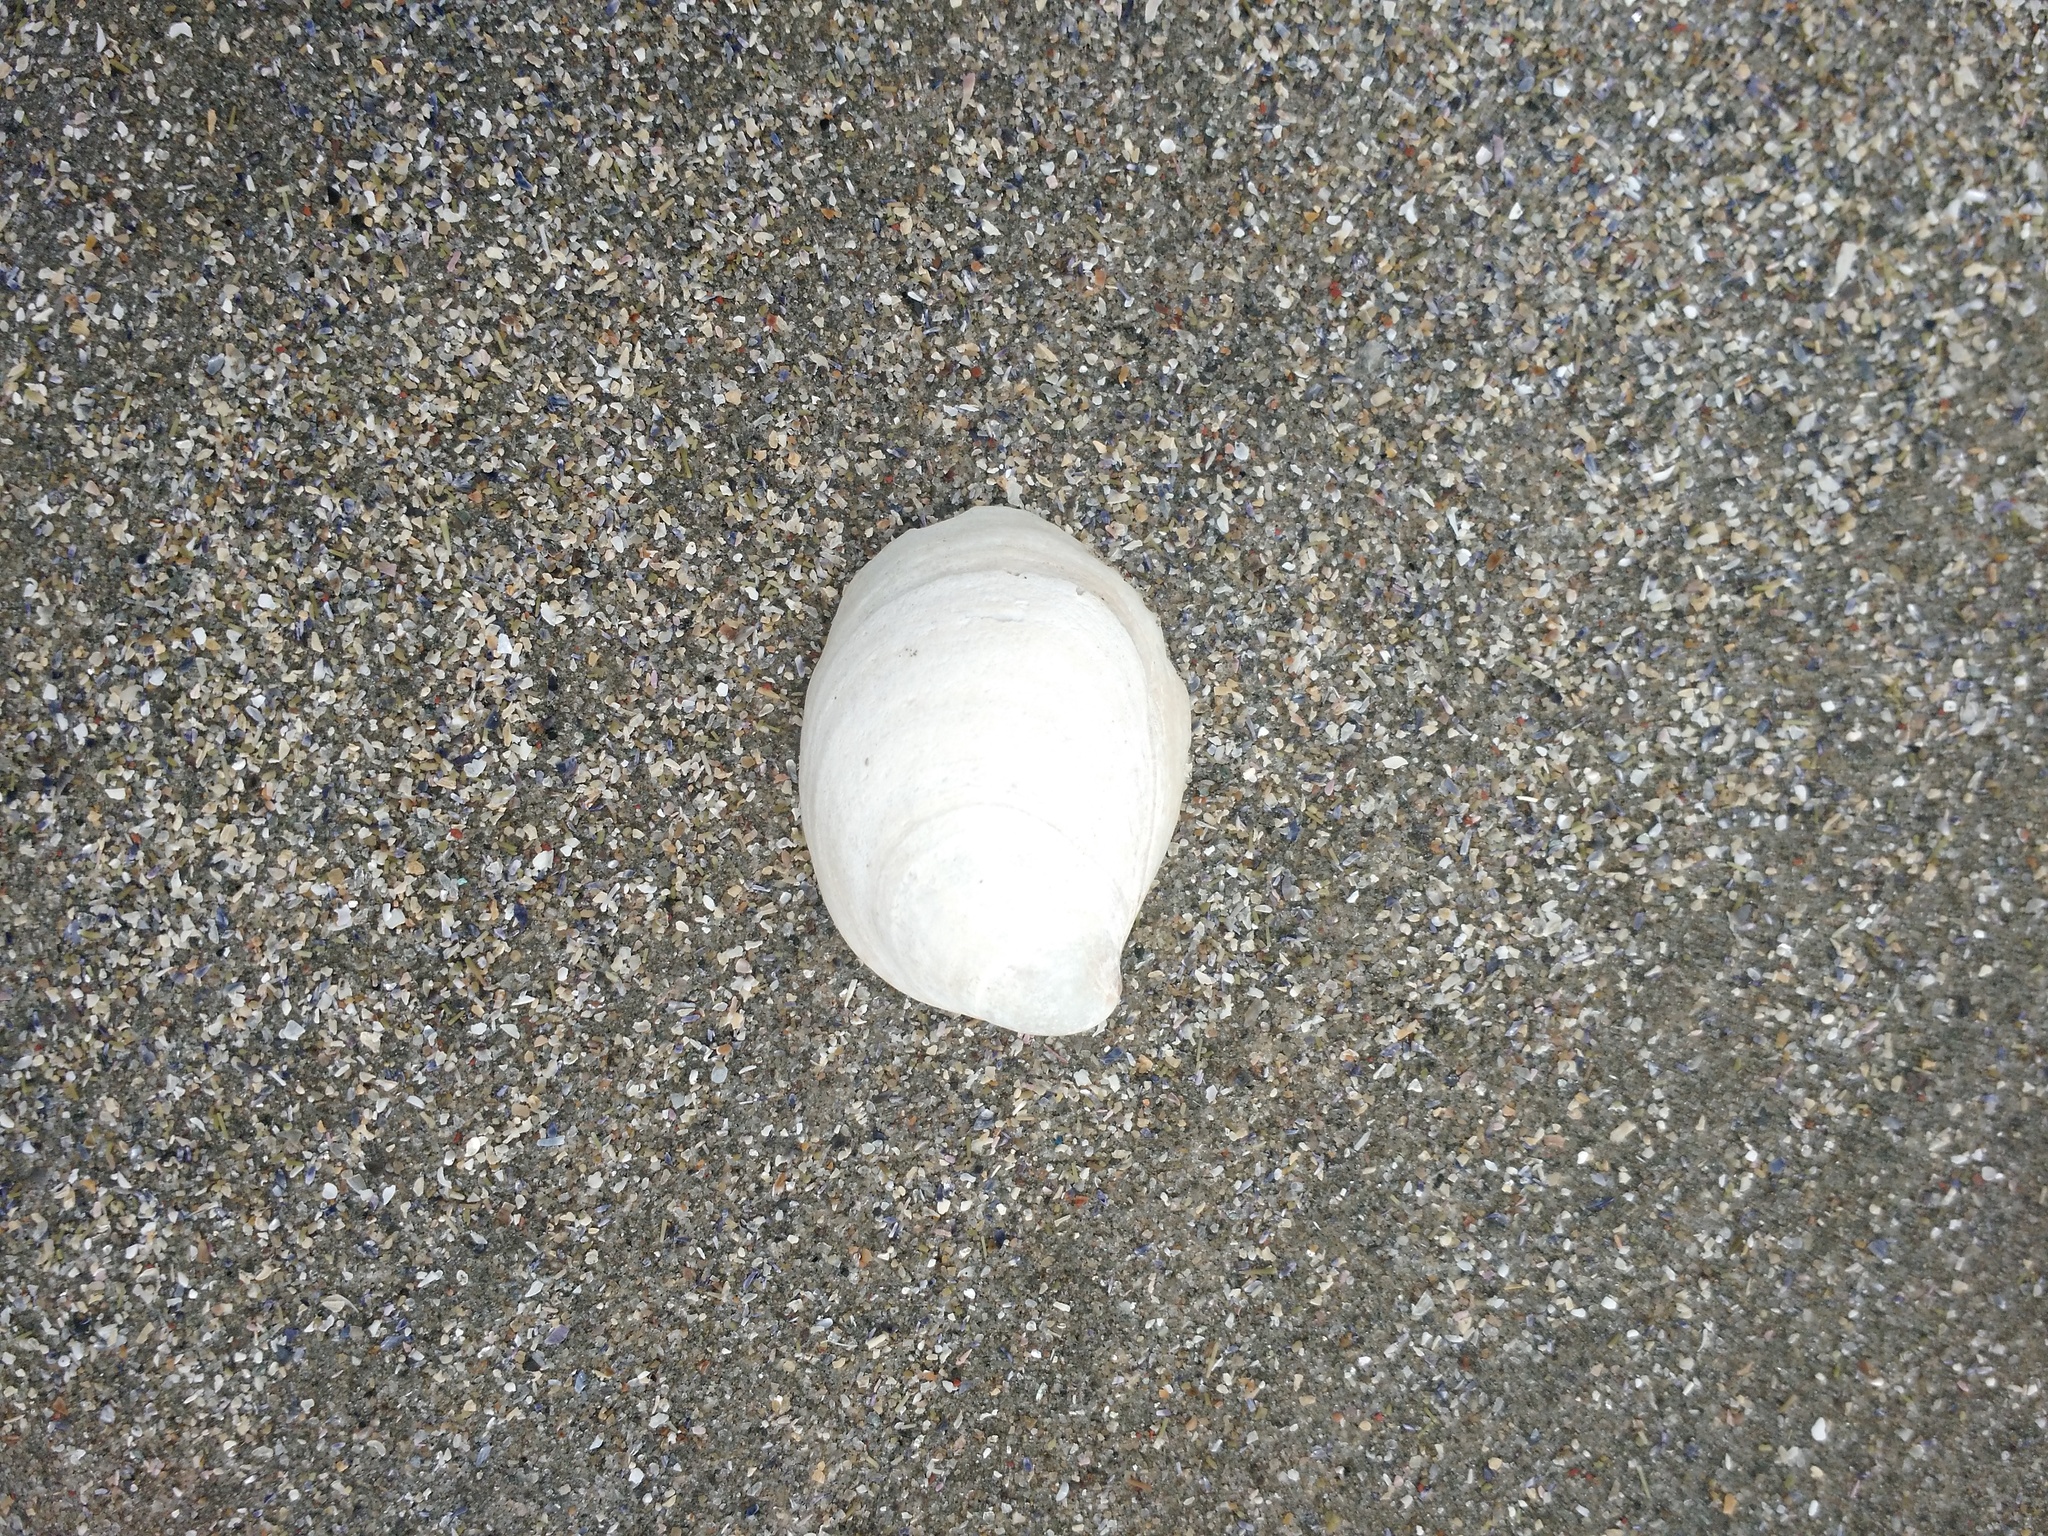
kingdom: Animalia
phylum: Mollusca
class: Gastropoda
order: Littorinimorpha
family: Calyptraeidae
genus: Crepidula
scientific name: Crepidula fornicata
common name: Slipper limpet
